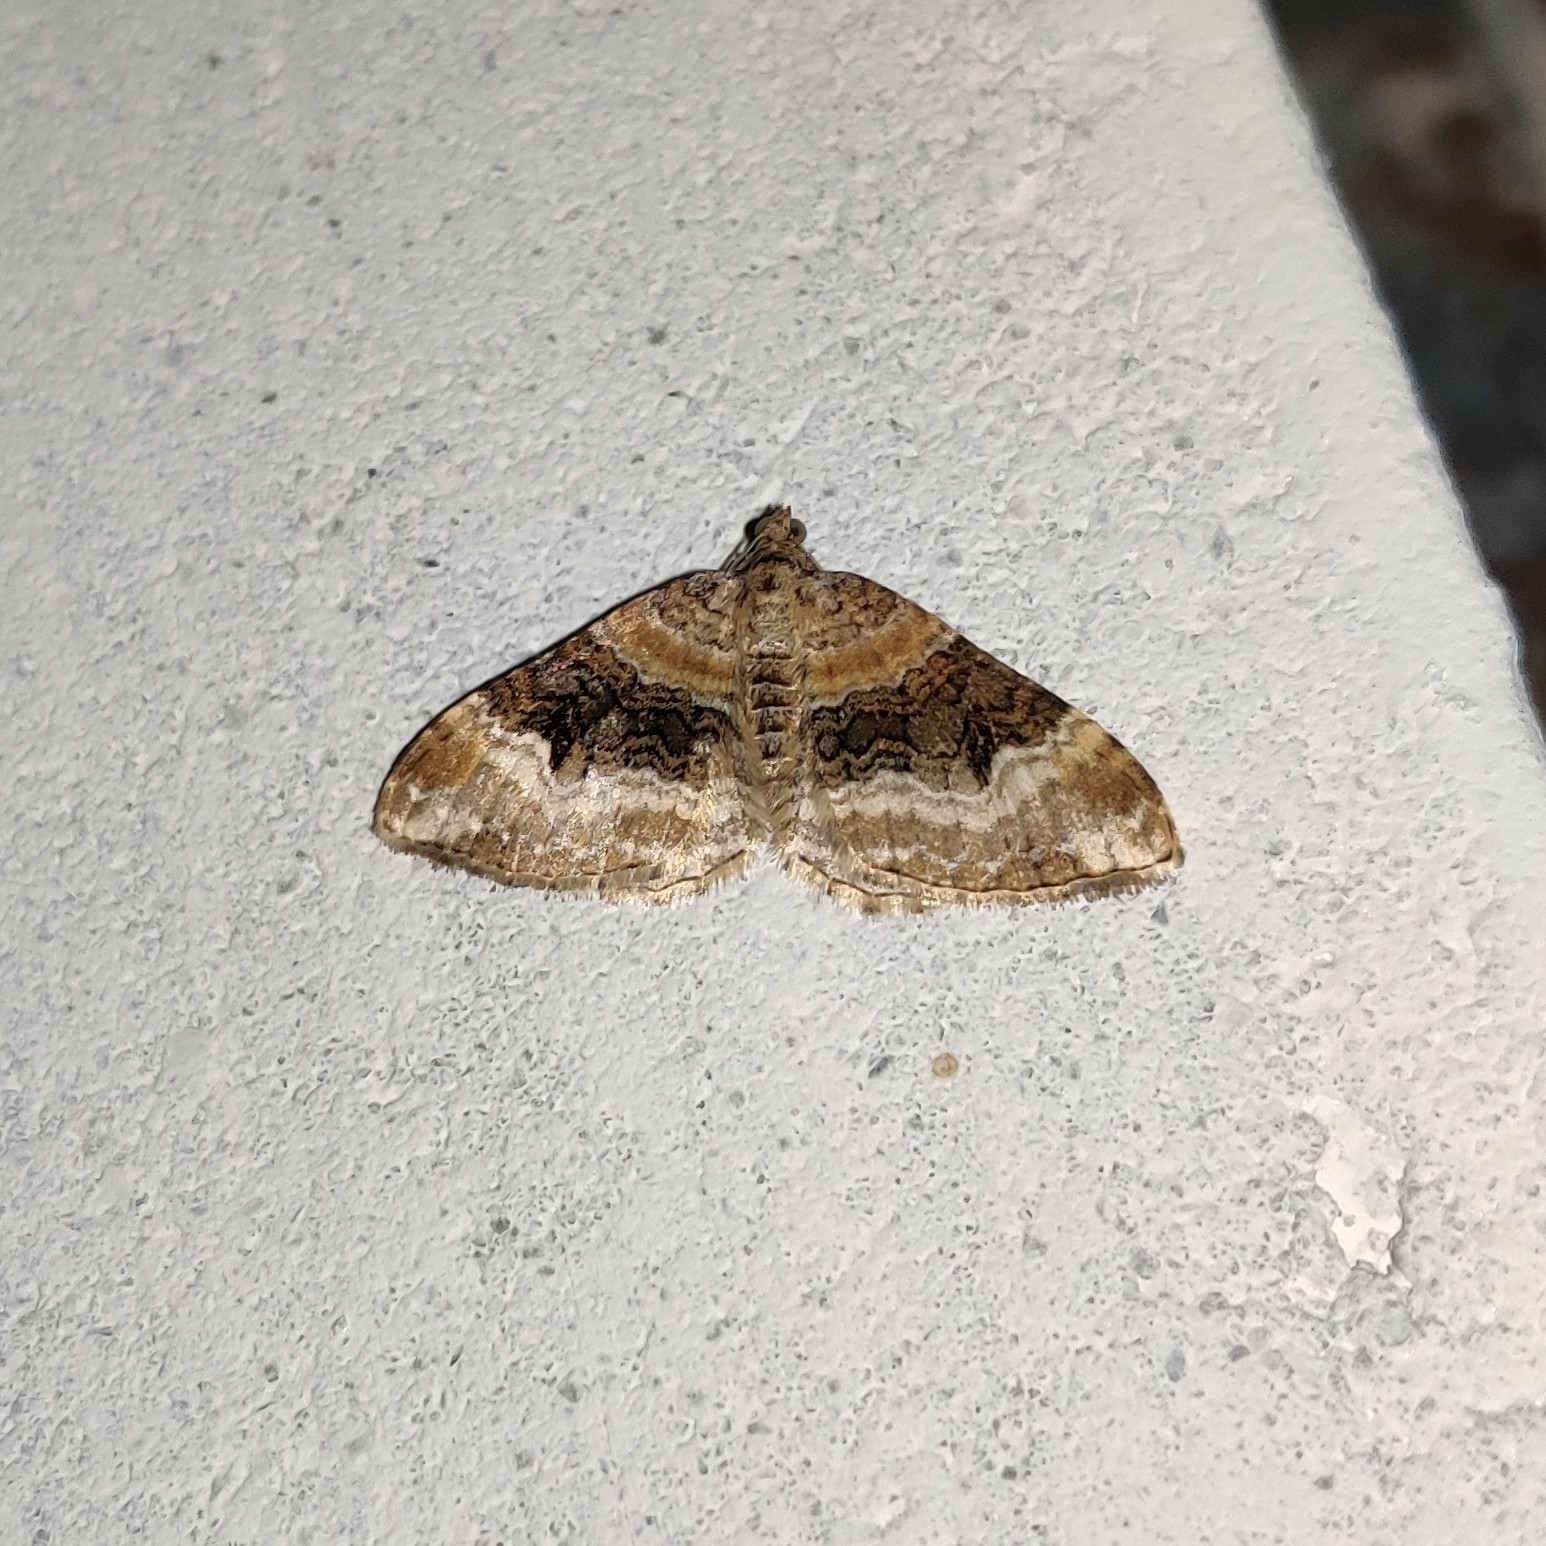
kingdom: Animalia
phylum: Arthropoda
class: Insecta
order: Lepidoptera
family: Geometridae
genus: Euphyia
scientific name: Euphyia subangulata
